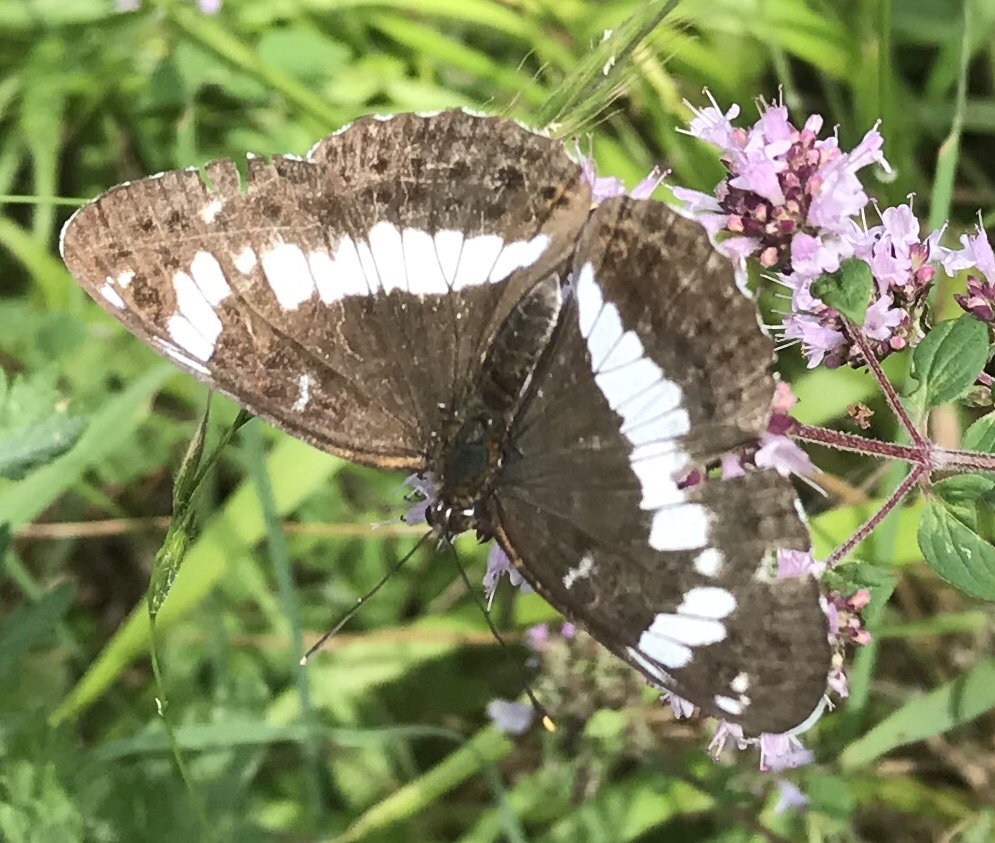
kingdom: Animalia
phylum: Arthropoda
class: Insecta
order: Lepidoptera
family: Nymphalidae
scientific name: Nymphalidae
